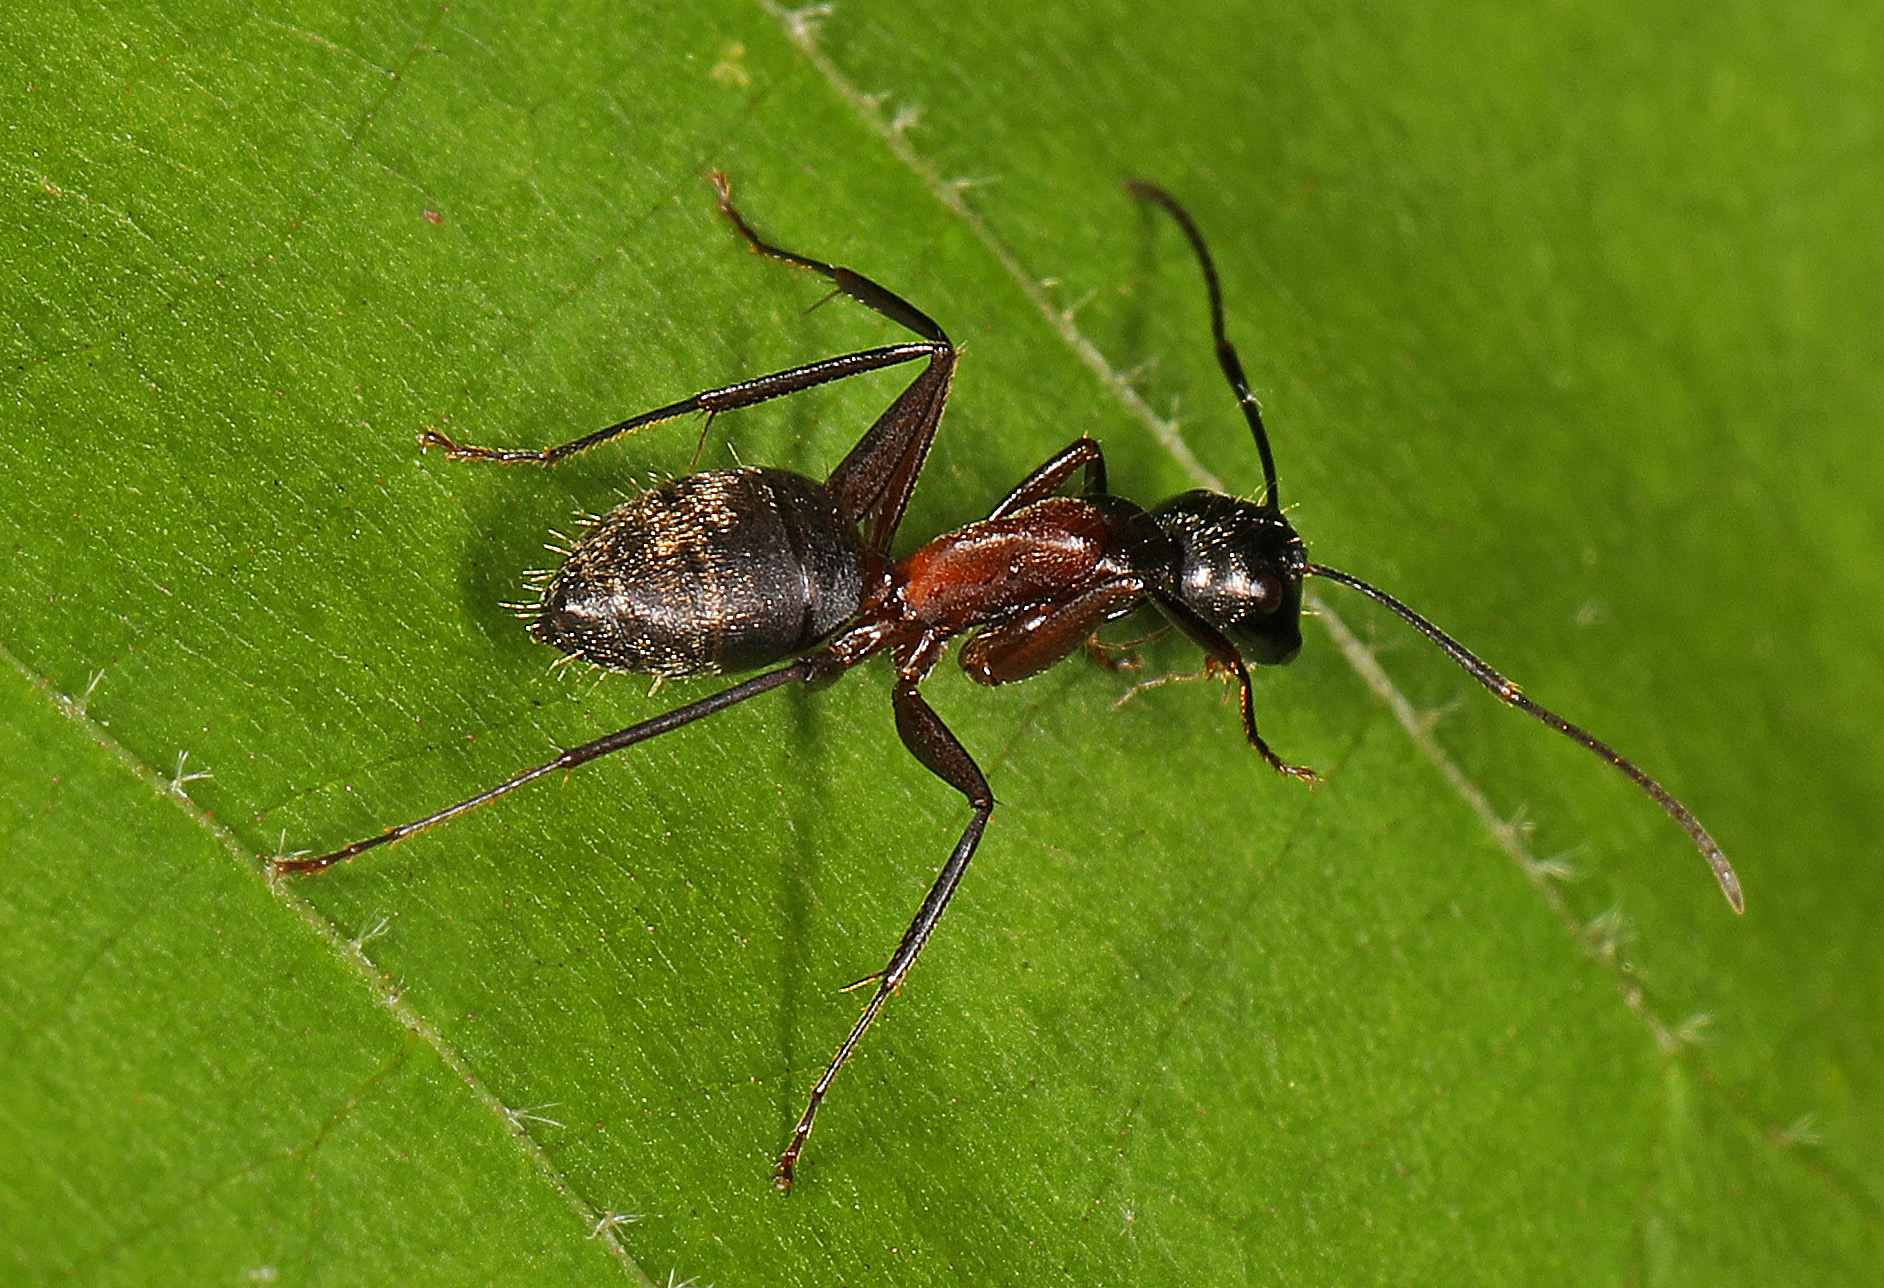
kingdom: Animalia
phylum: Arthropoda
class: Insecta
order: Hymenoptera
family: Formicidae
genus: Camponotus
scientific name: Camponotus chromaiodes
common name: Red carpenter ant
